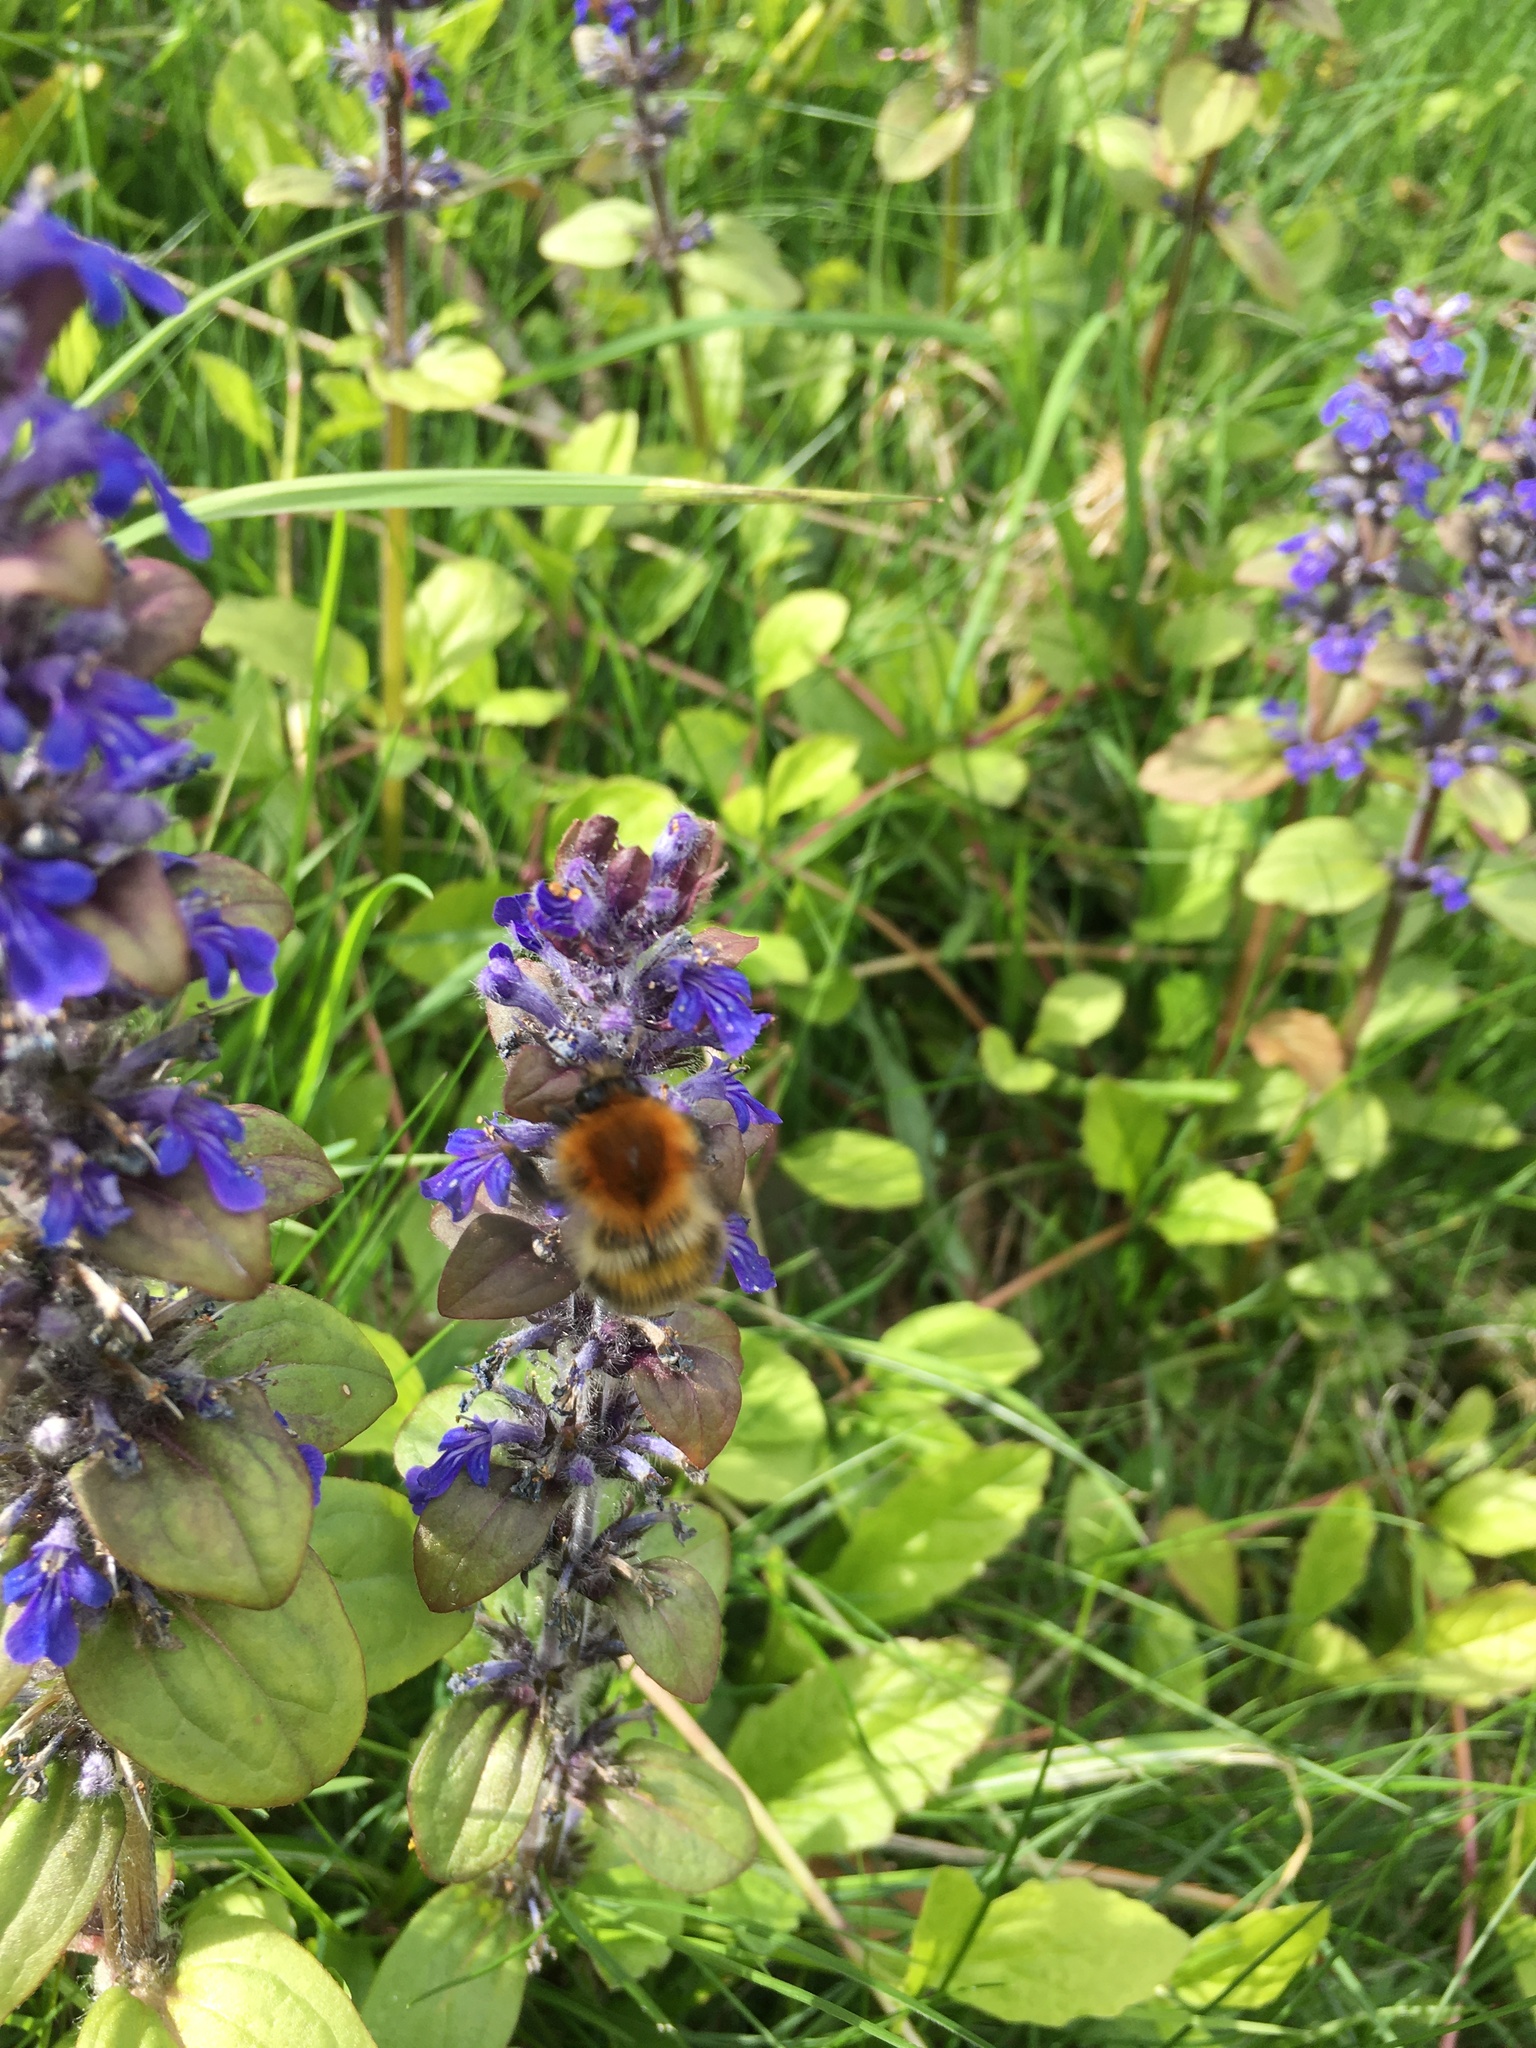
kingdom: Animalia
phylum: Arthropoda
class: Insecta
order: Hymenoptera
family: Apidae
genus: Bombus
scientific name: Bombus pascuorum
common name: Common carder bee
